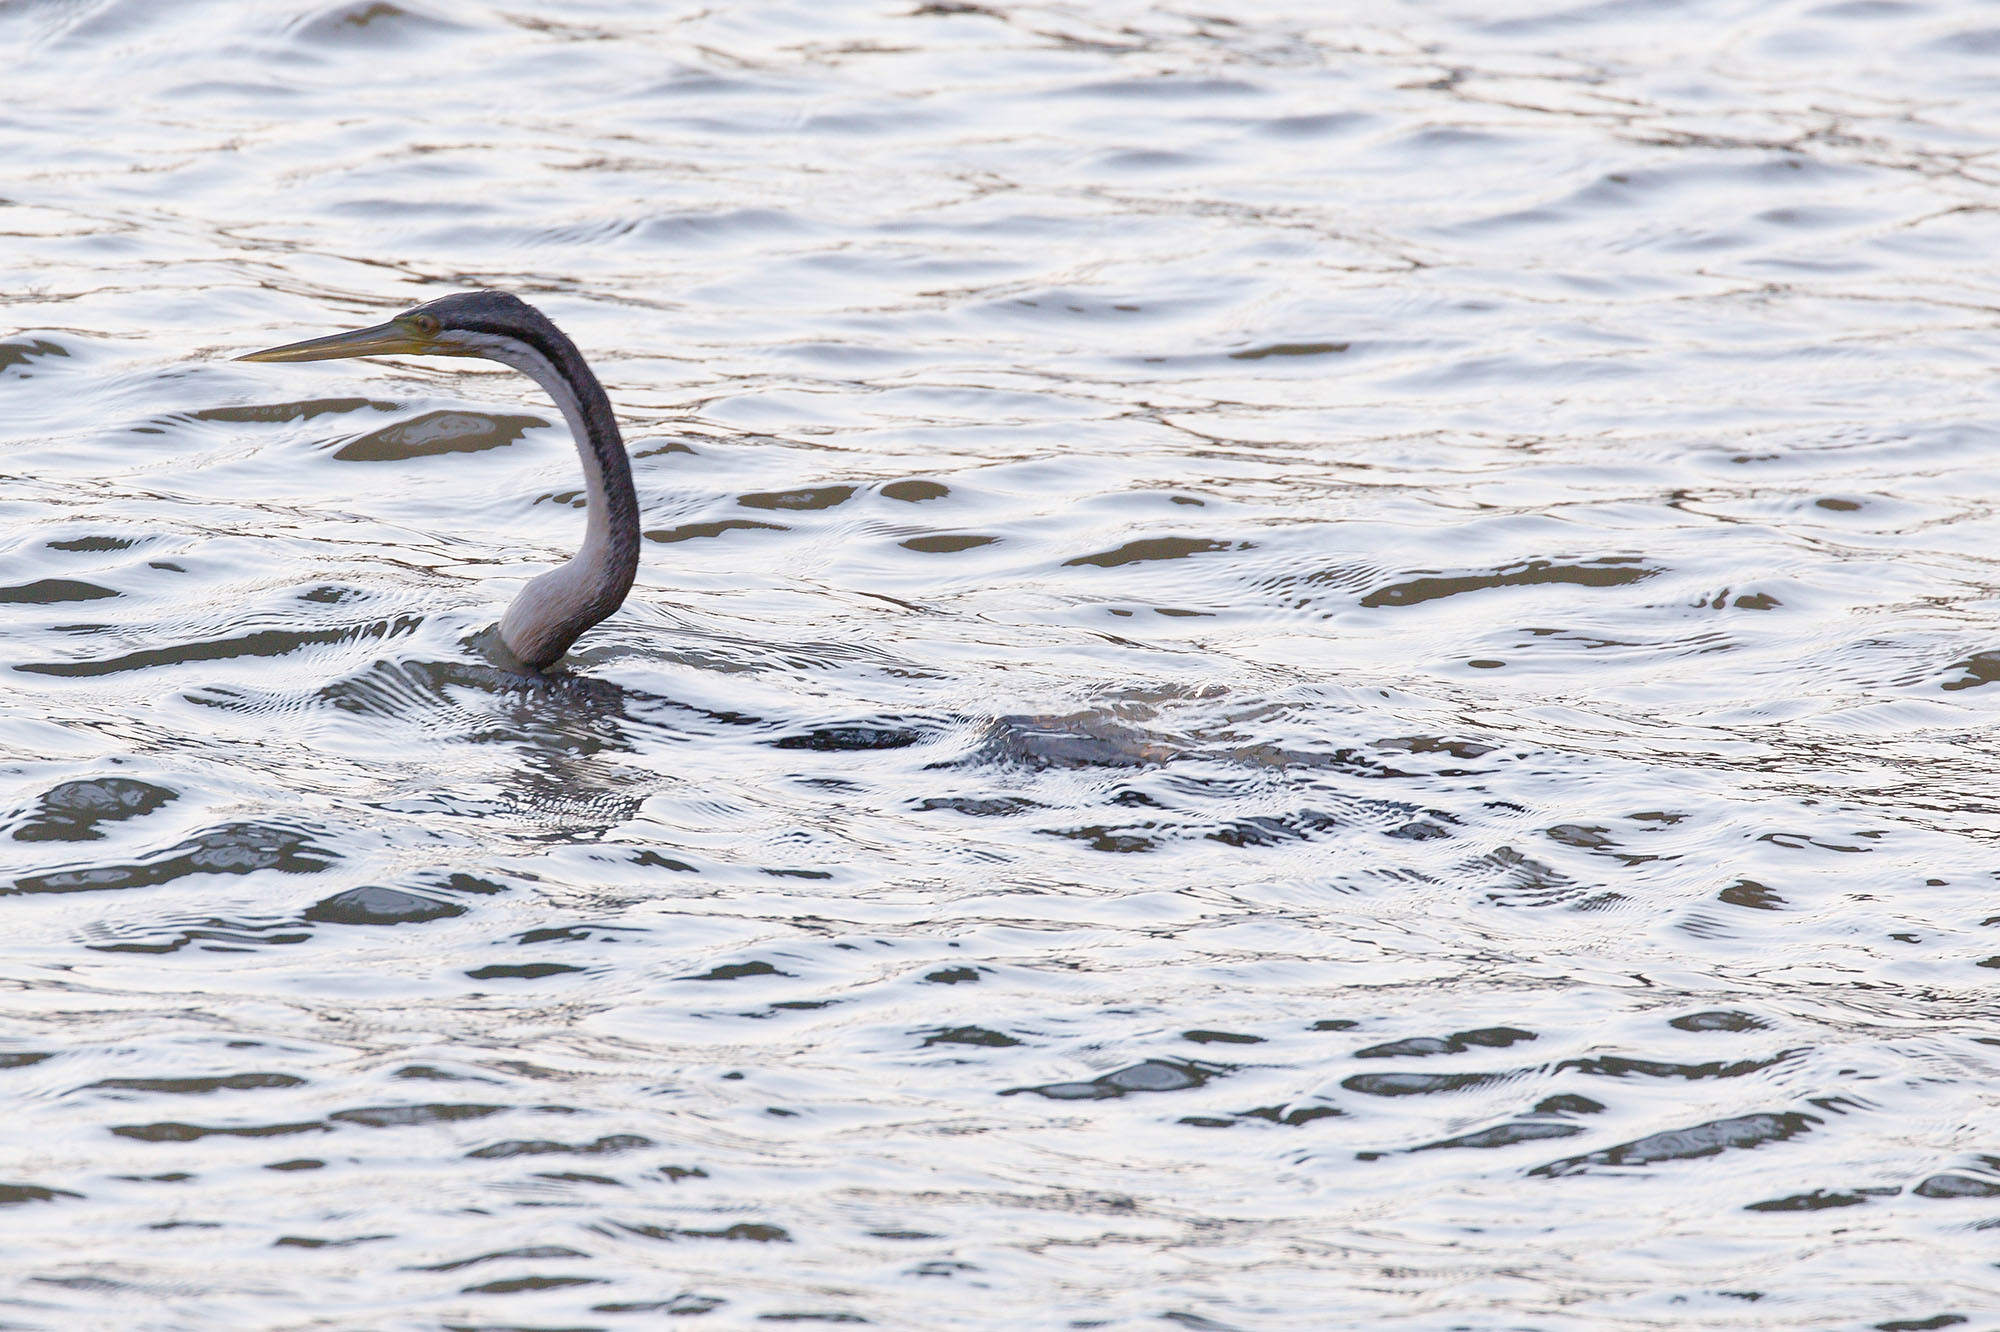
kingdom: Animalia
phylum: Chordata
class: Aves
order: Suliformes
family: Anhingidae
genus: Anhinga
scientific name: Anhinga novaehollandiae
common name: Australasian darter
